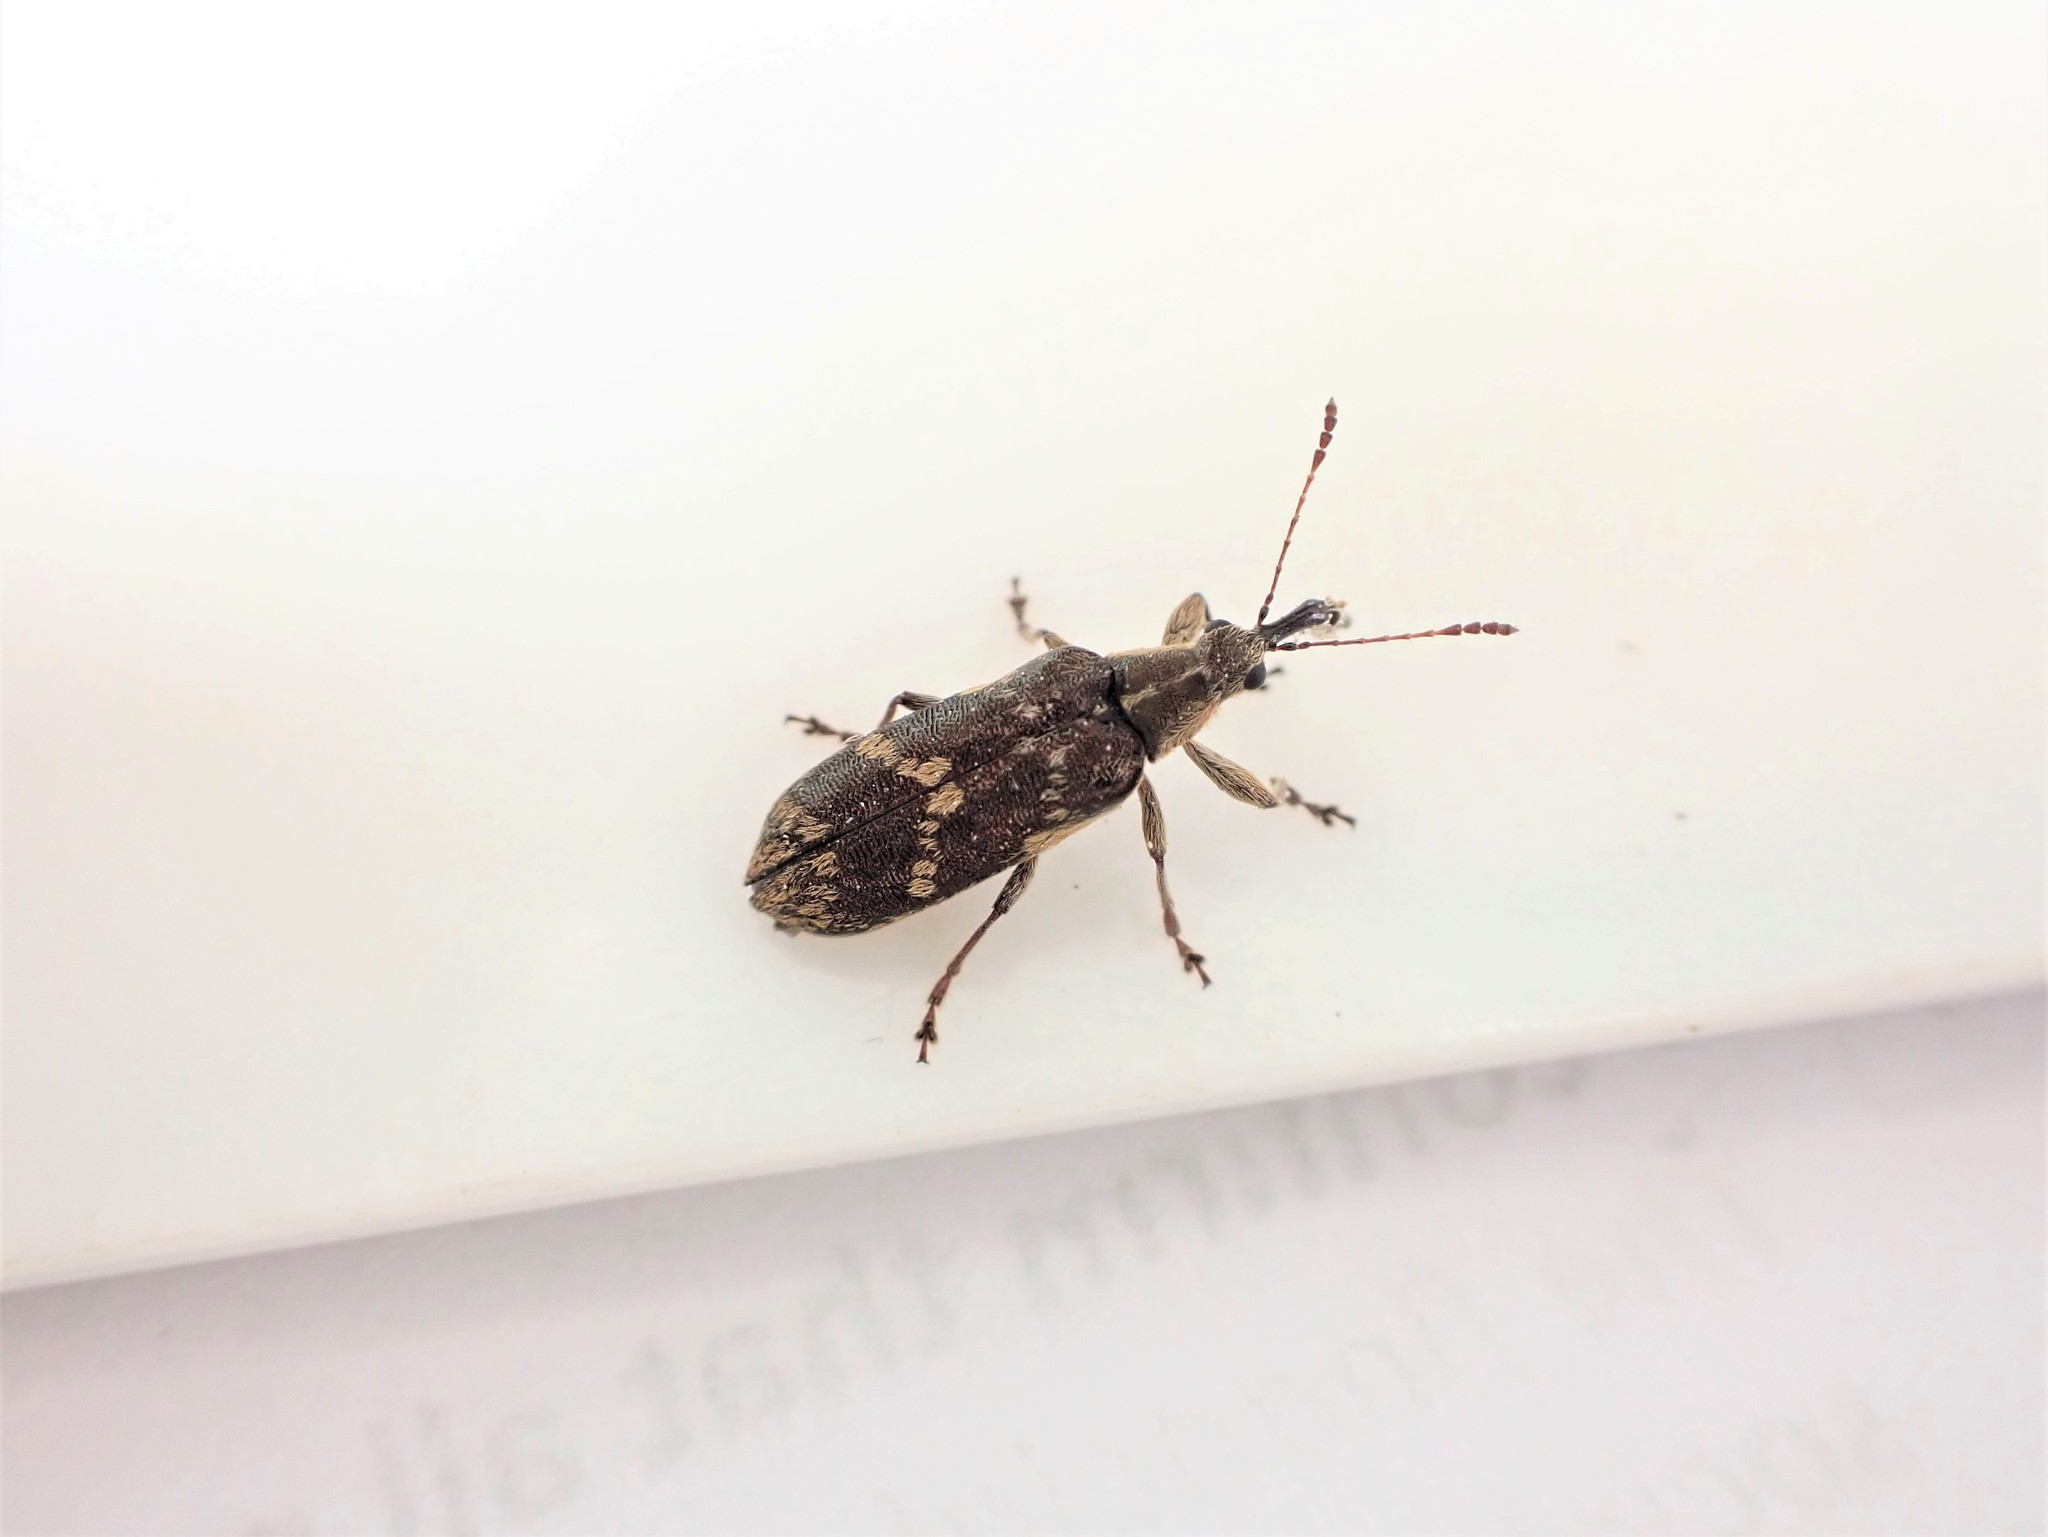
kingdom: Animalia
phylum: Arthropoda
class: Insecta
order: Coleoptera
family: Belidae
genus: Rhicnobelus
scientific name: Rhicnobelus
